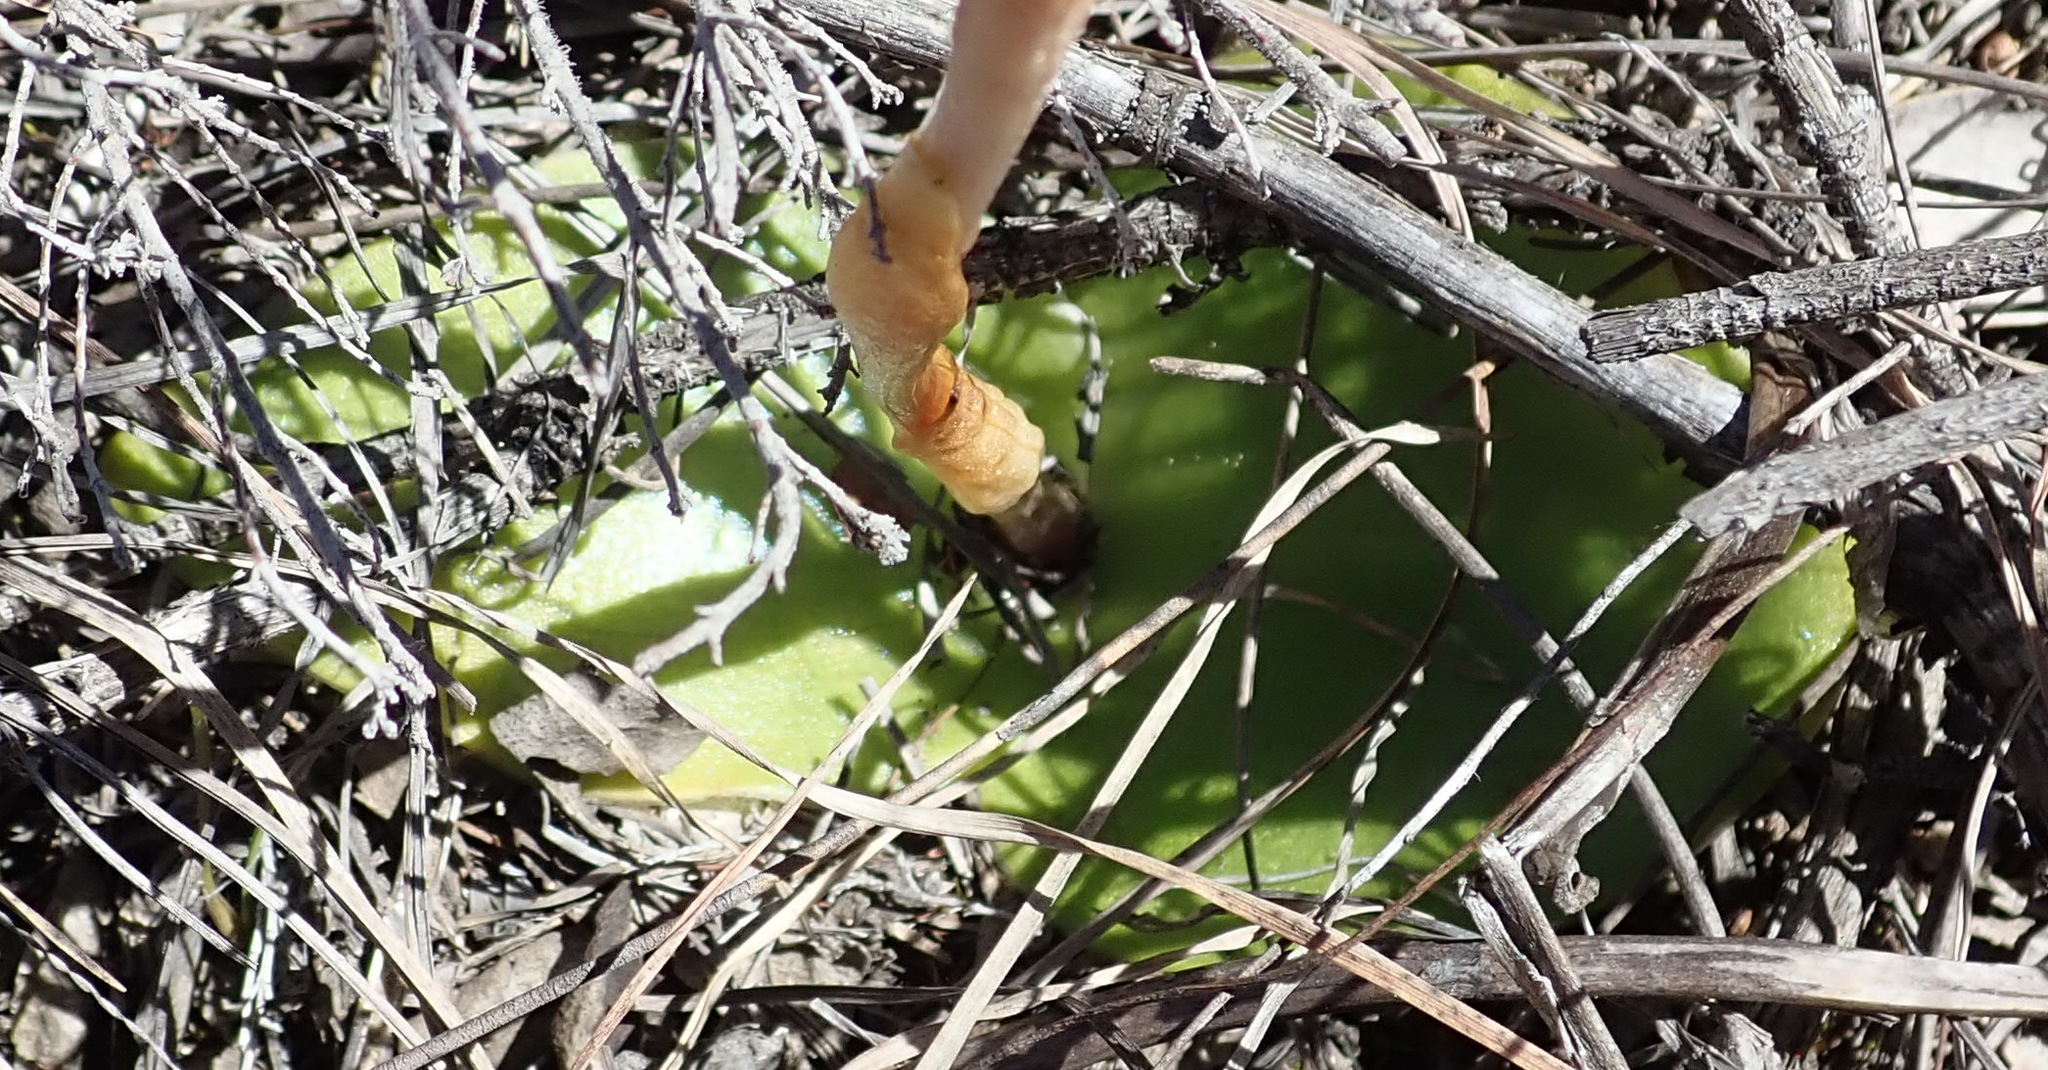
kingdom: Plantae
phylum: Tracheophyta
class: Liliopsida
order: Asparagales
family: Orchidaceae
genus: Satyrium
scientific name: Satyrium erectum
